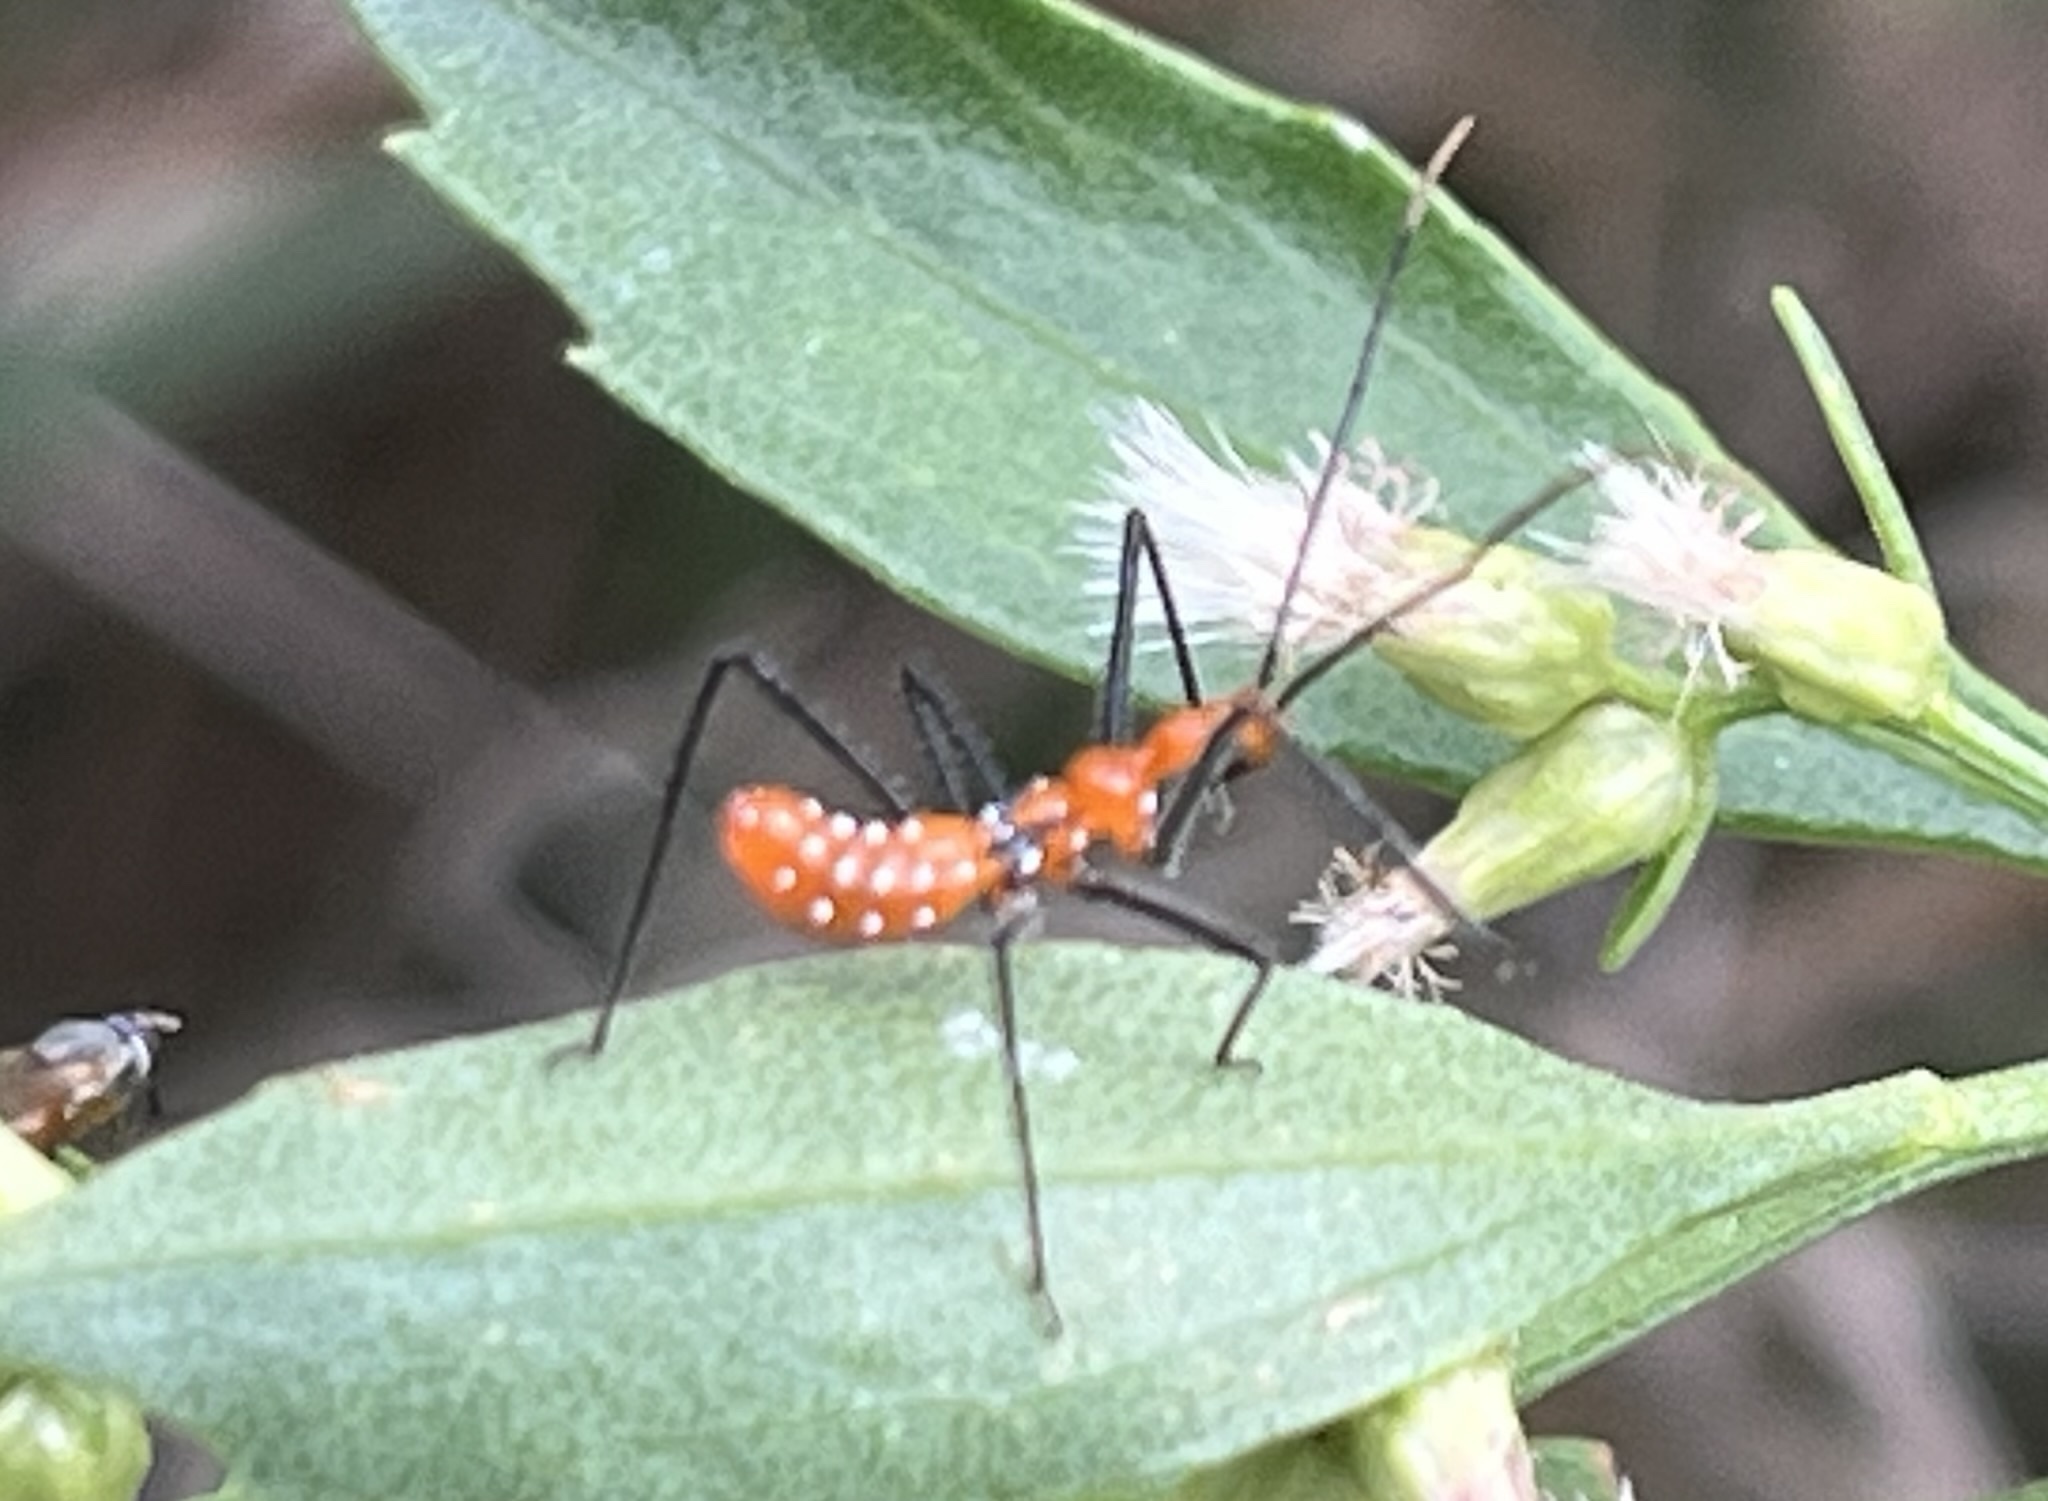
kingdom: Animalia
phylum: Arthropoda
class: Insecta
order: Hemiptera
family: Reduviidae
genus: Zelus
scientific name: Zelus longipes
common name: Milkweed assassin bug
